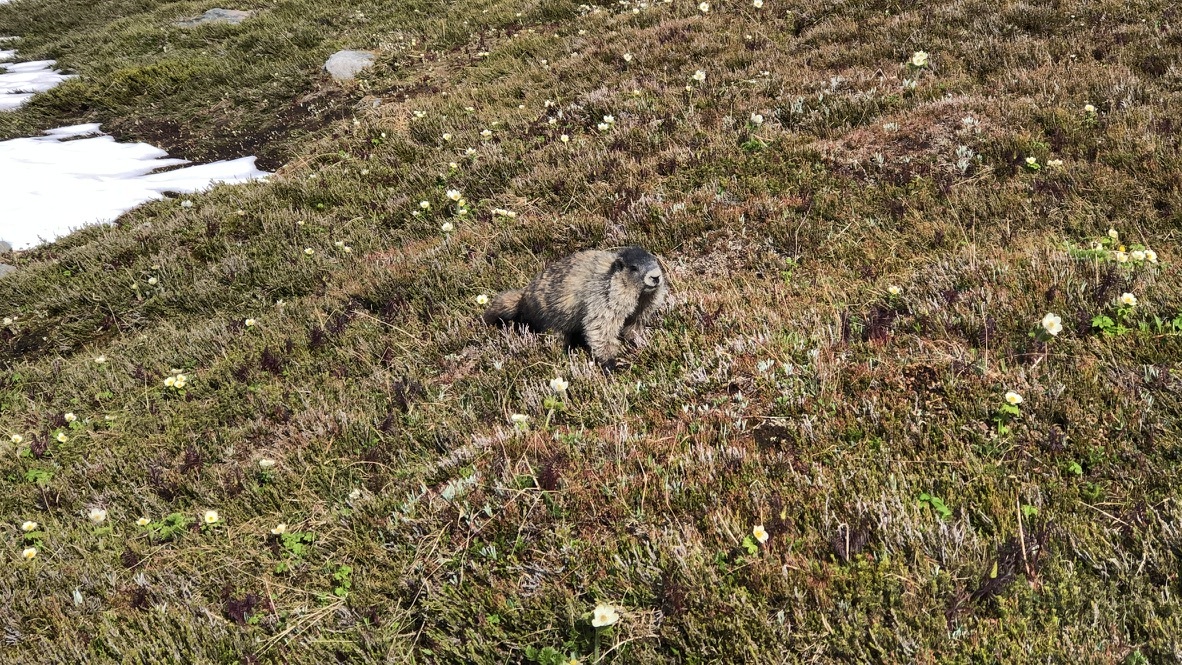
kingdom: Animalia
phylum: Chordata
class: Mammalia
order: Rodentia
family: Sciuridae
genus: Marmota
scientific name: Marmota caligata
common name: Hoary marmot
